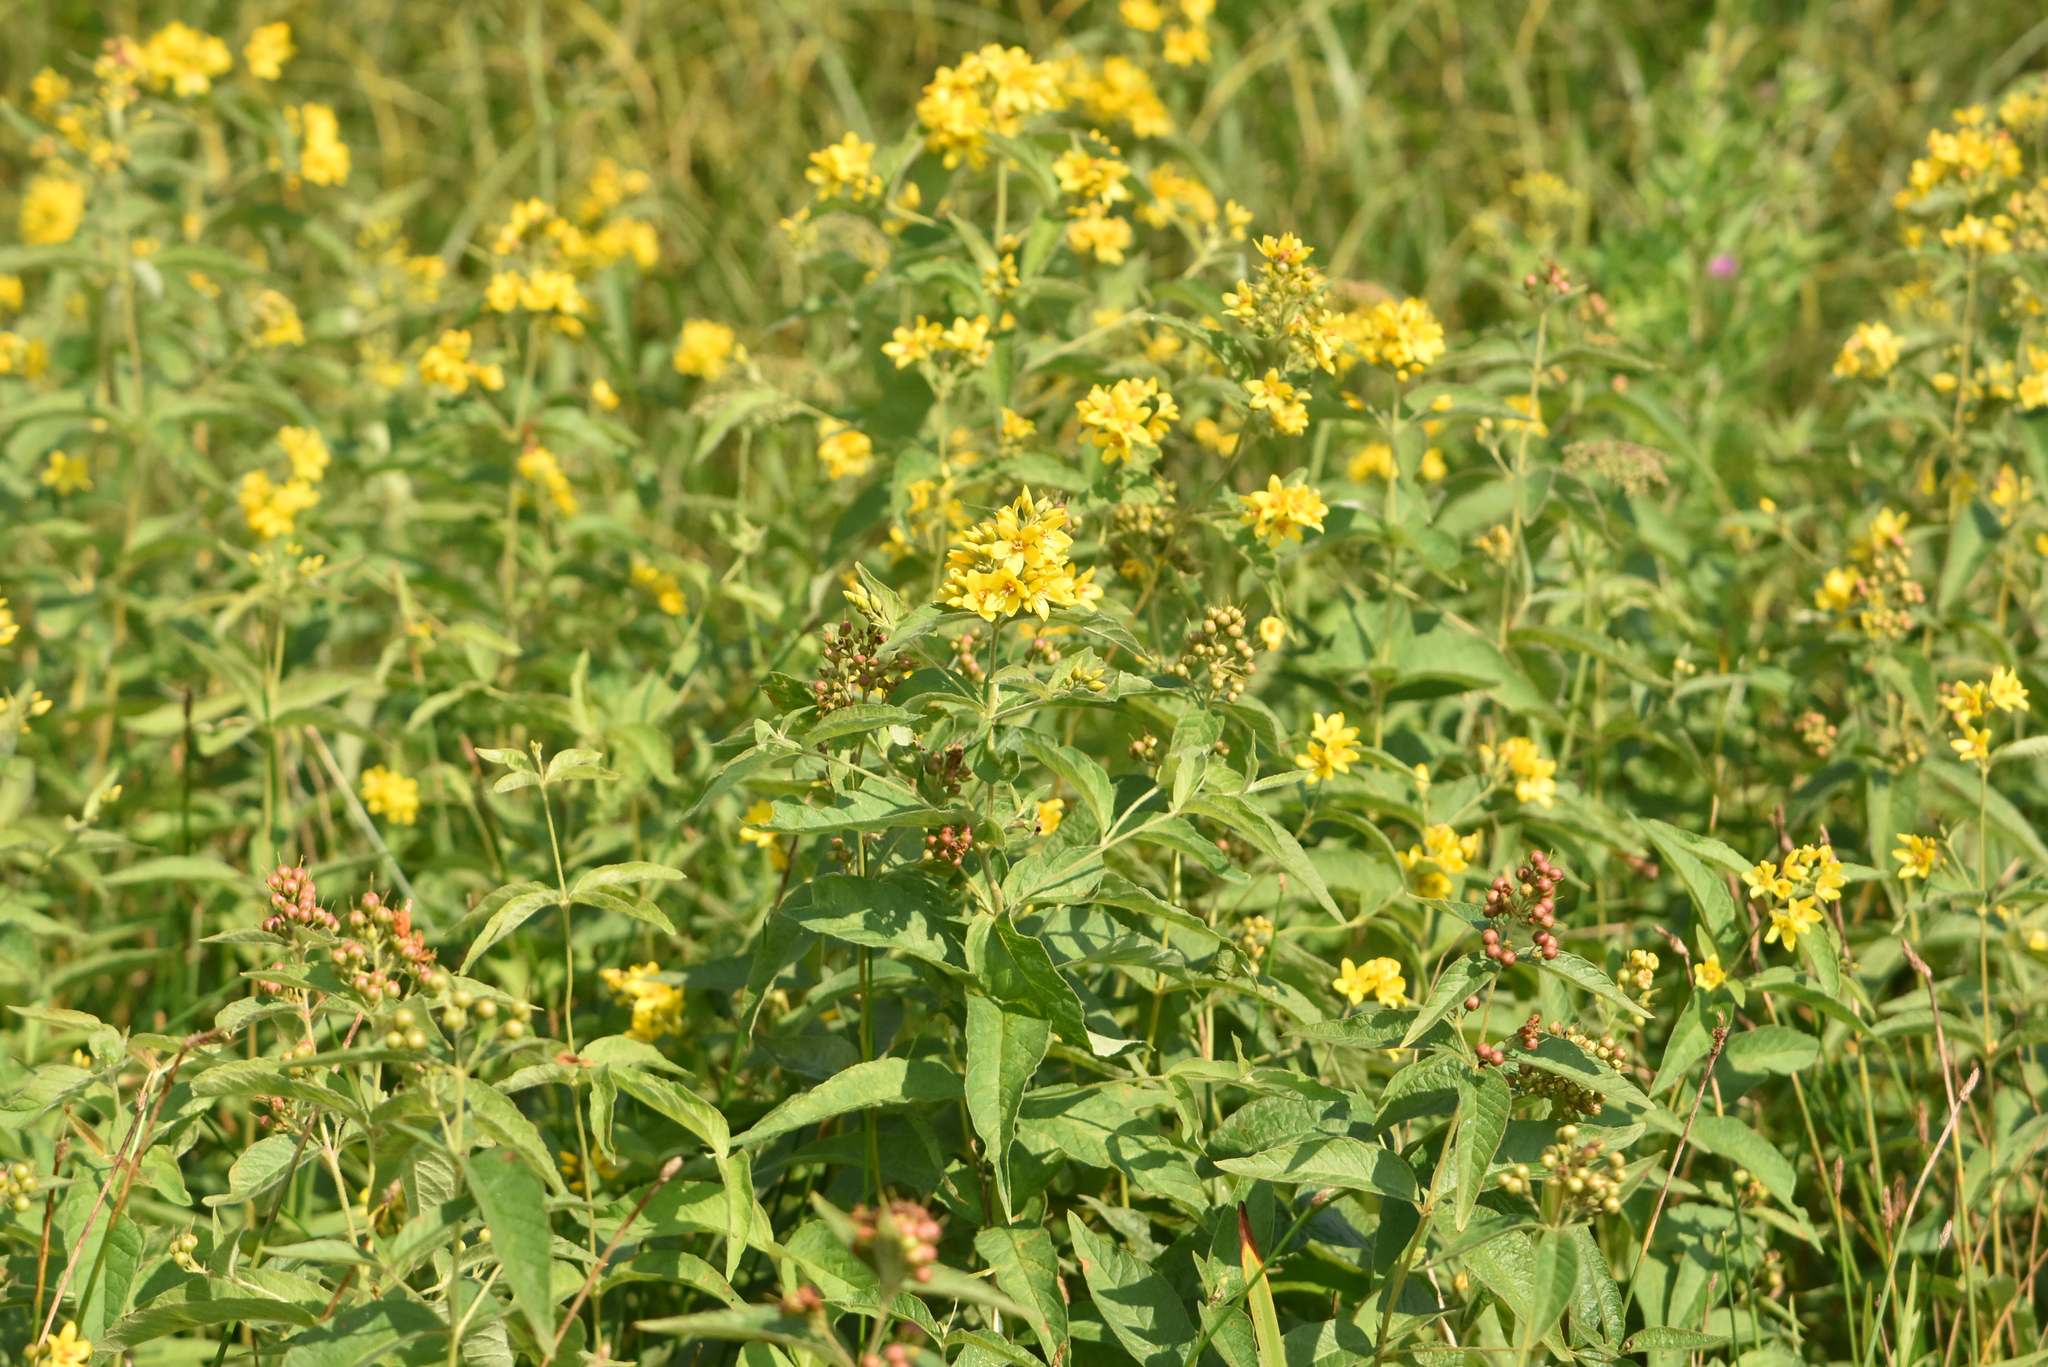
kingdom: Plantae
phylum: Tracheophyta
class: Magnoliopsida
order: Ericales
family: Primulaceae
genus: Lysimachia
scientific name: Lysimachia vulgaris
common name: Yellow loosestrife
